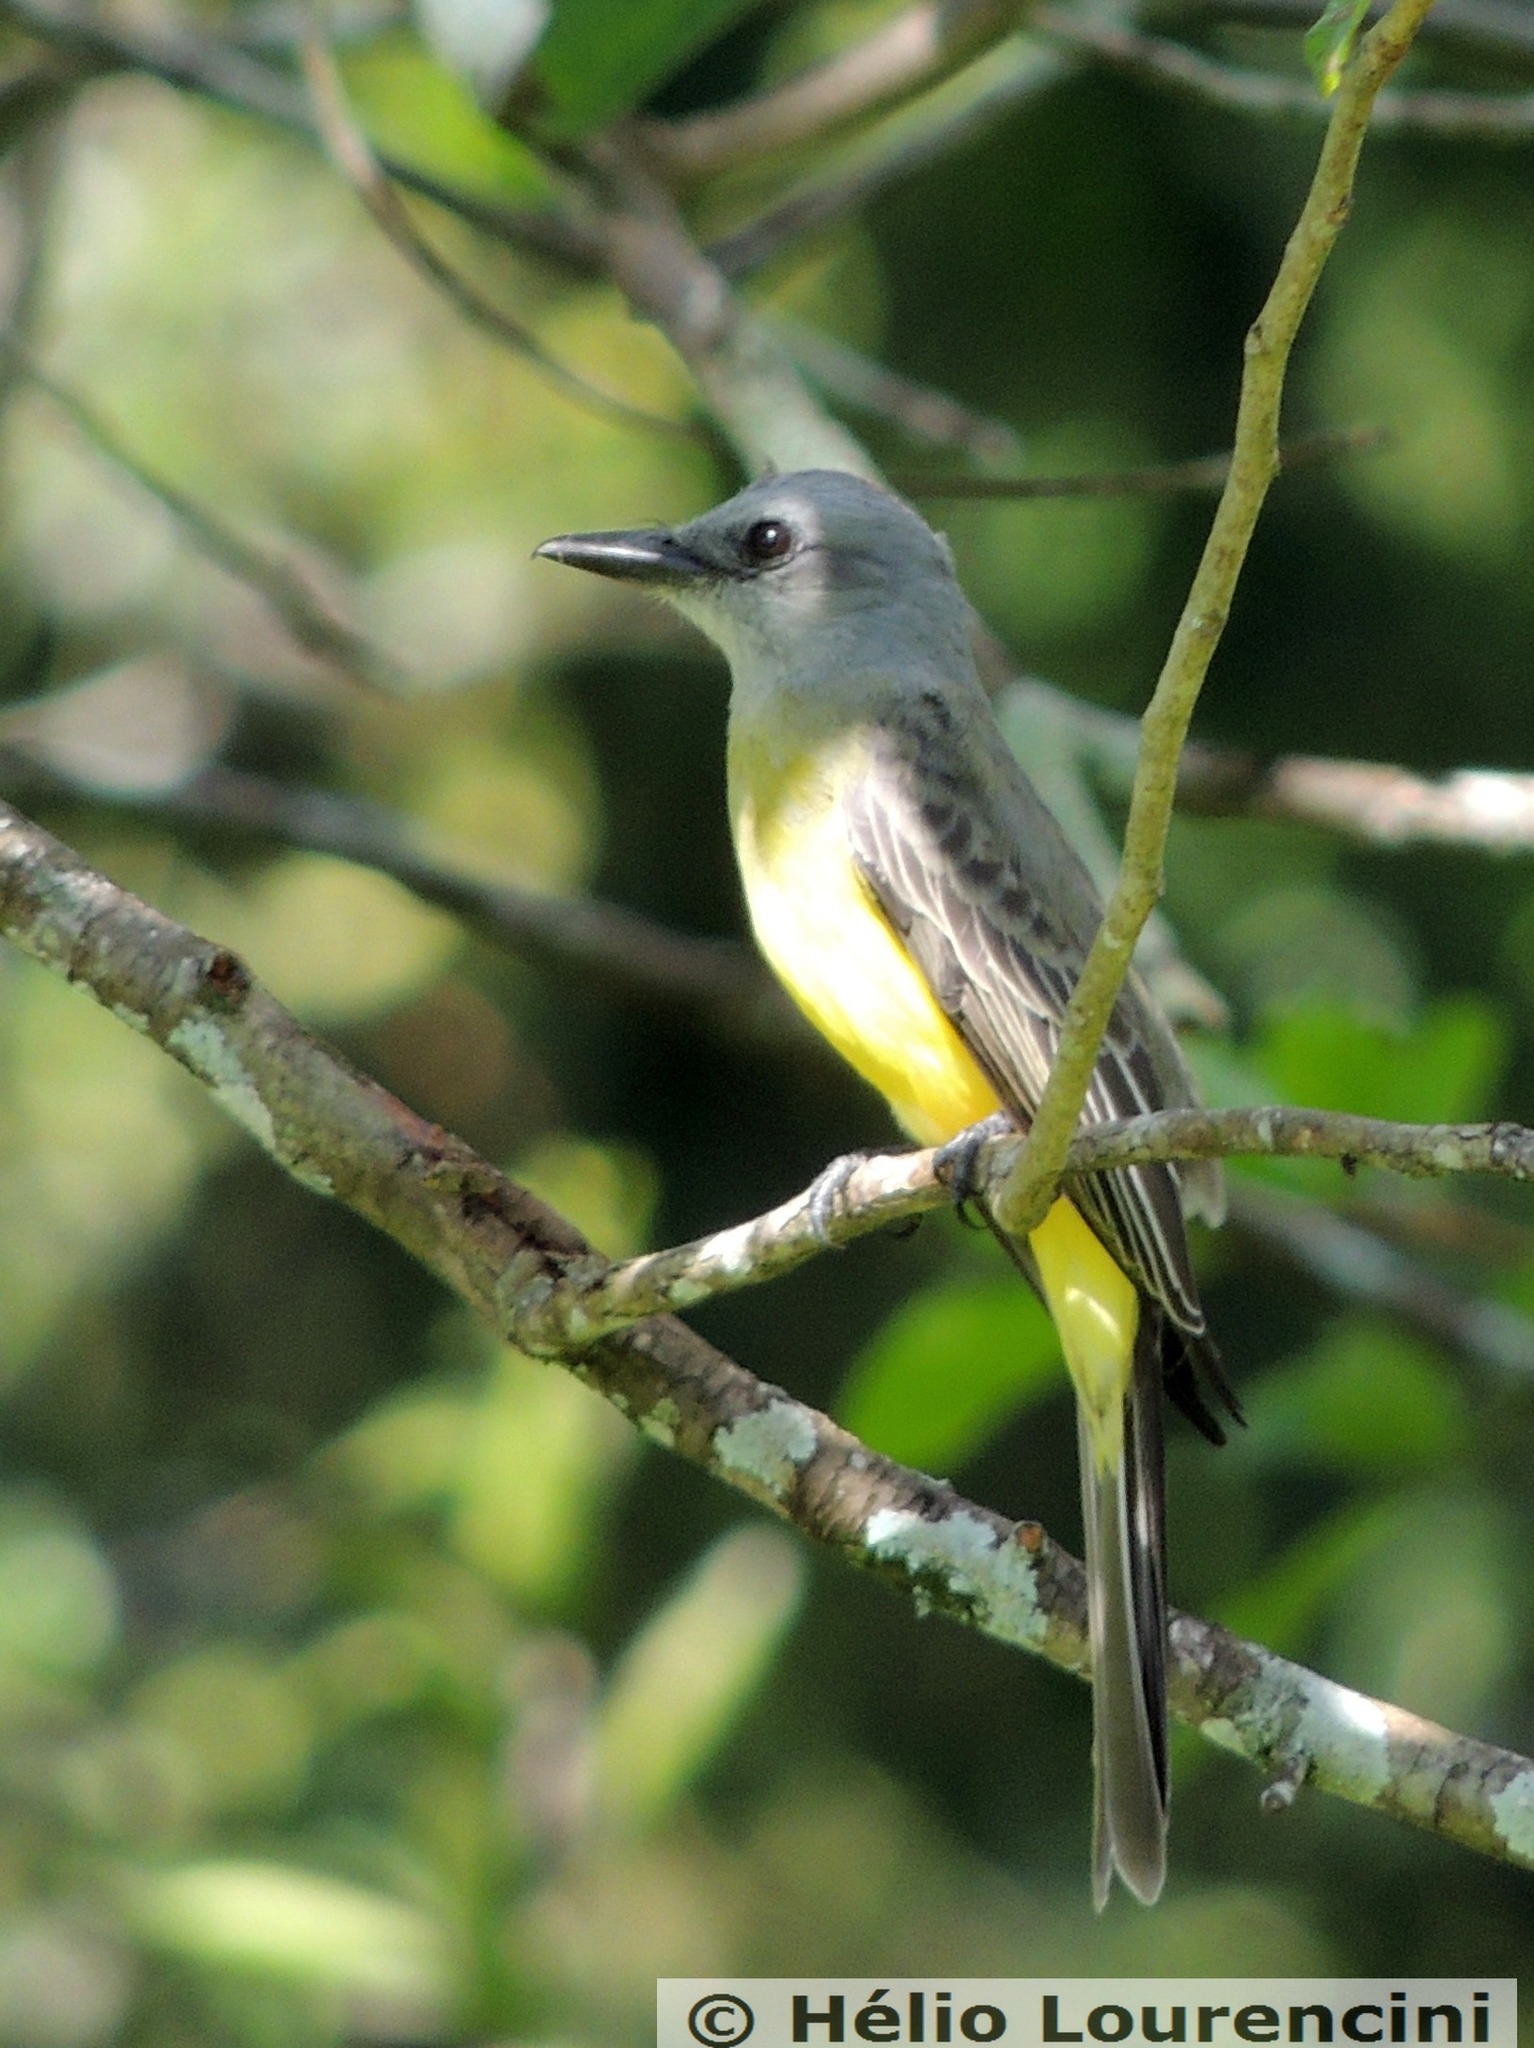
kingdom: Animalia
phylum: Chordata
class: Aves
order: Passeriformes
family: Tyrannidae
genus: Tyrannus
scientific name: Tyrannus melancholicus
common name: Tropical kingbird
